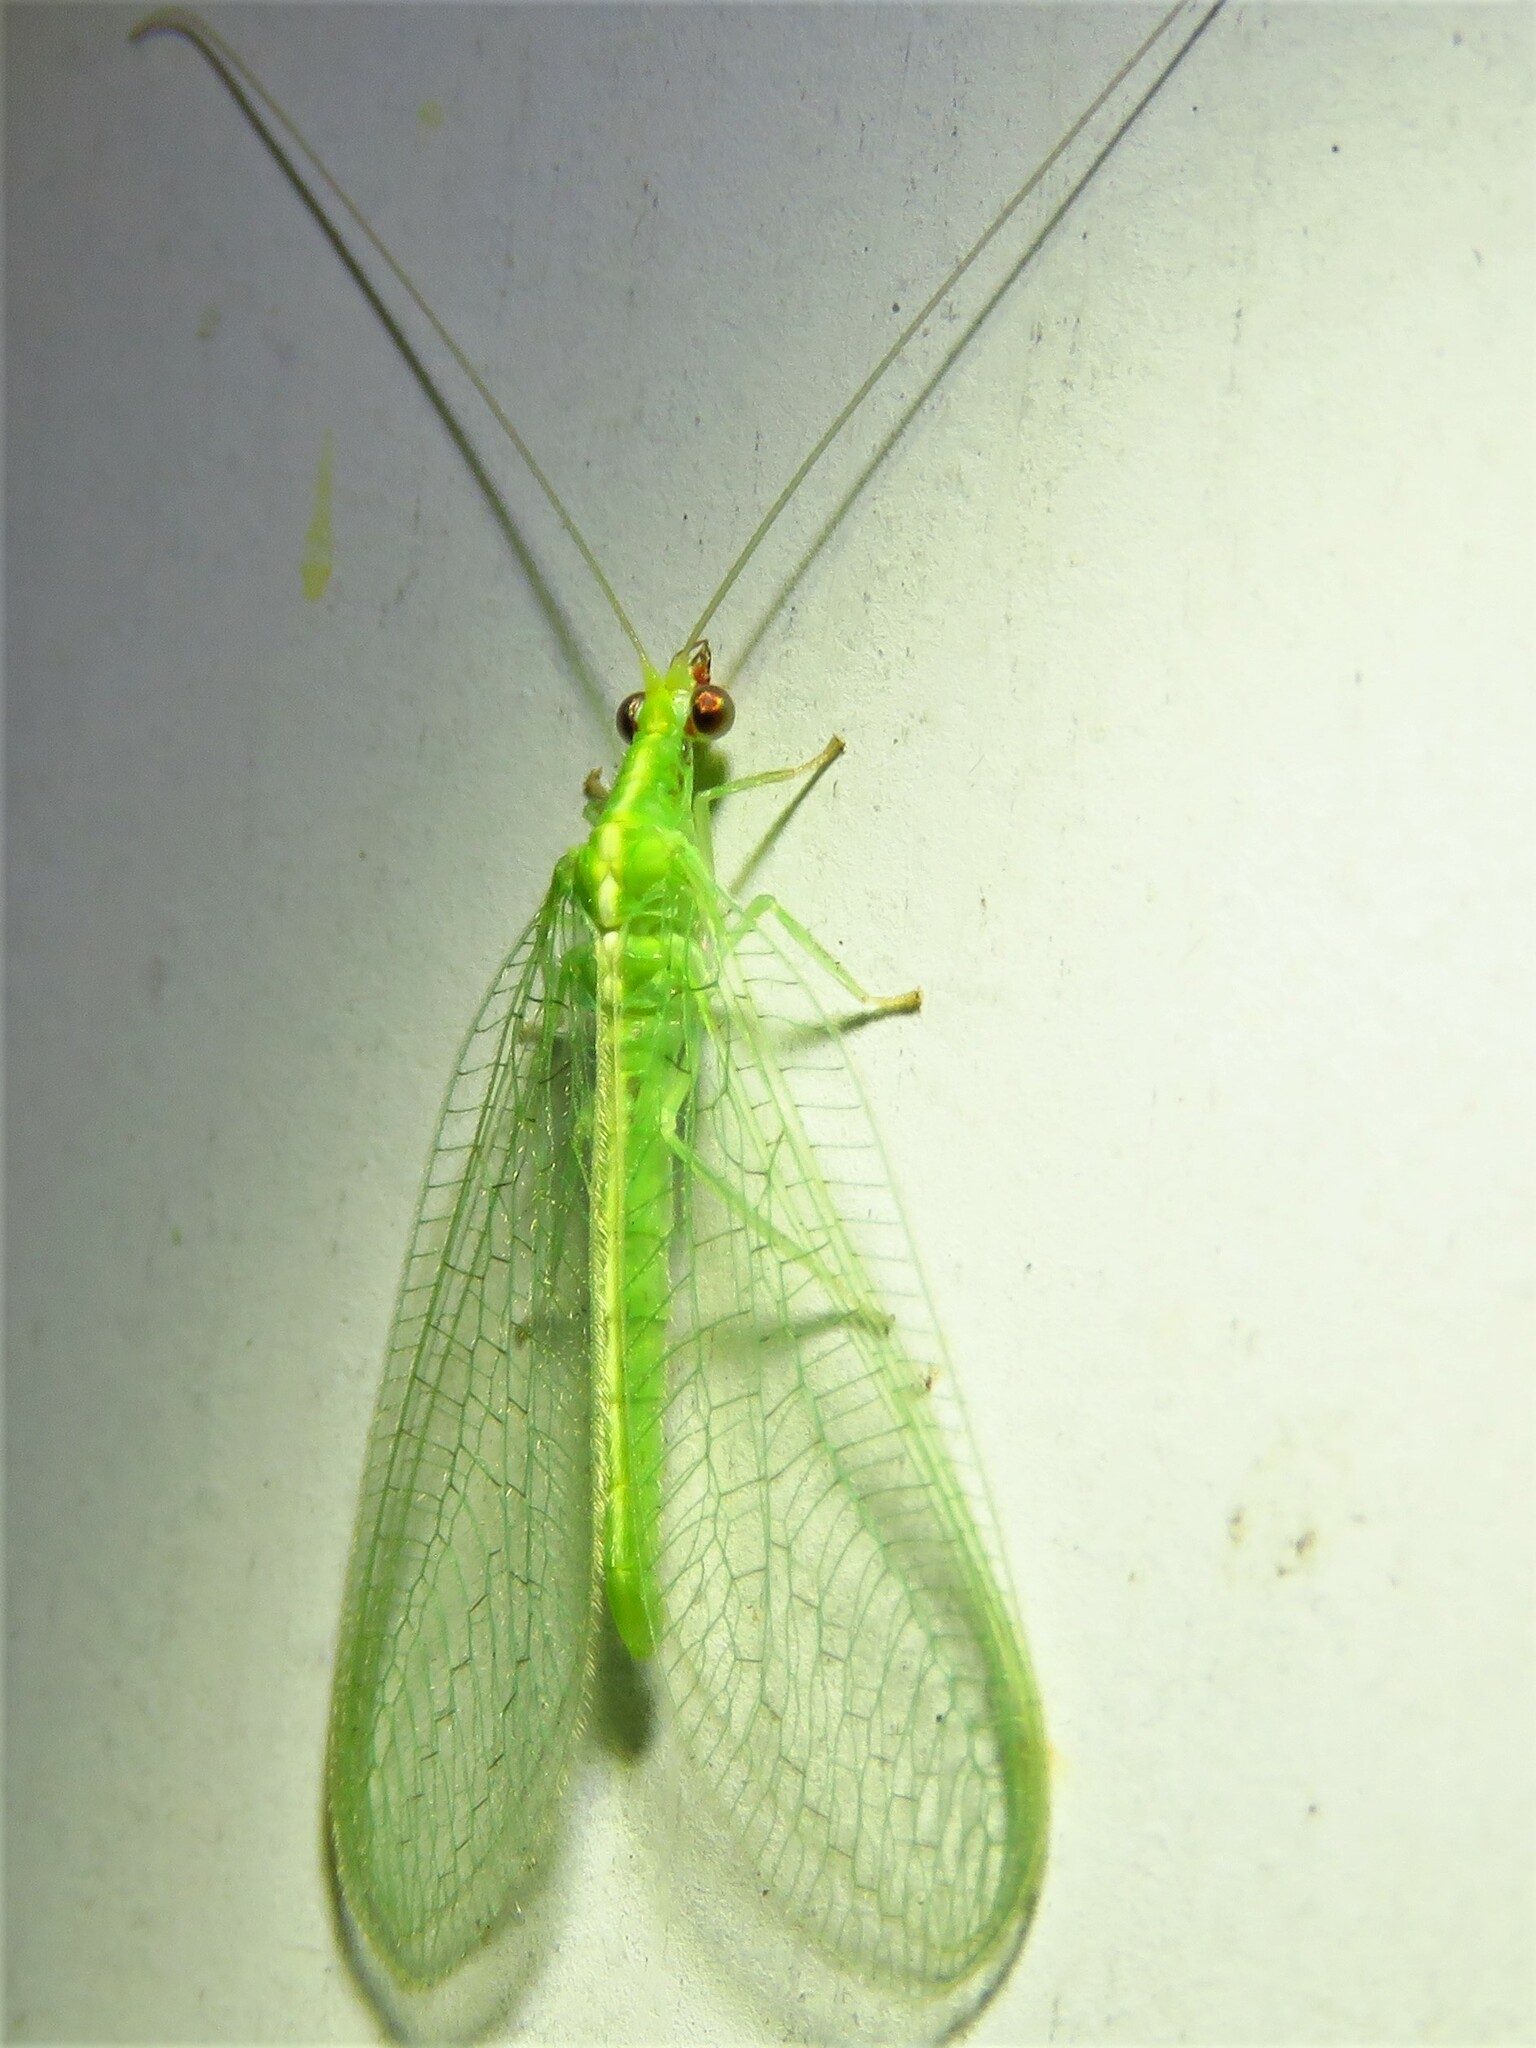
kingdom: Animalia
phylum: Arthropoda
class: Insecta
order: Neuroptera
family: Chrysopidae
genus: Chrysoperla
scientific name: Chrysoperla rufilabris
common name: Red-lipped green lacewing
